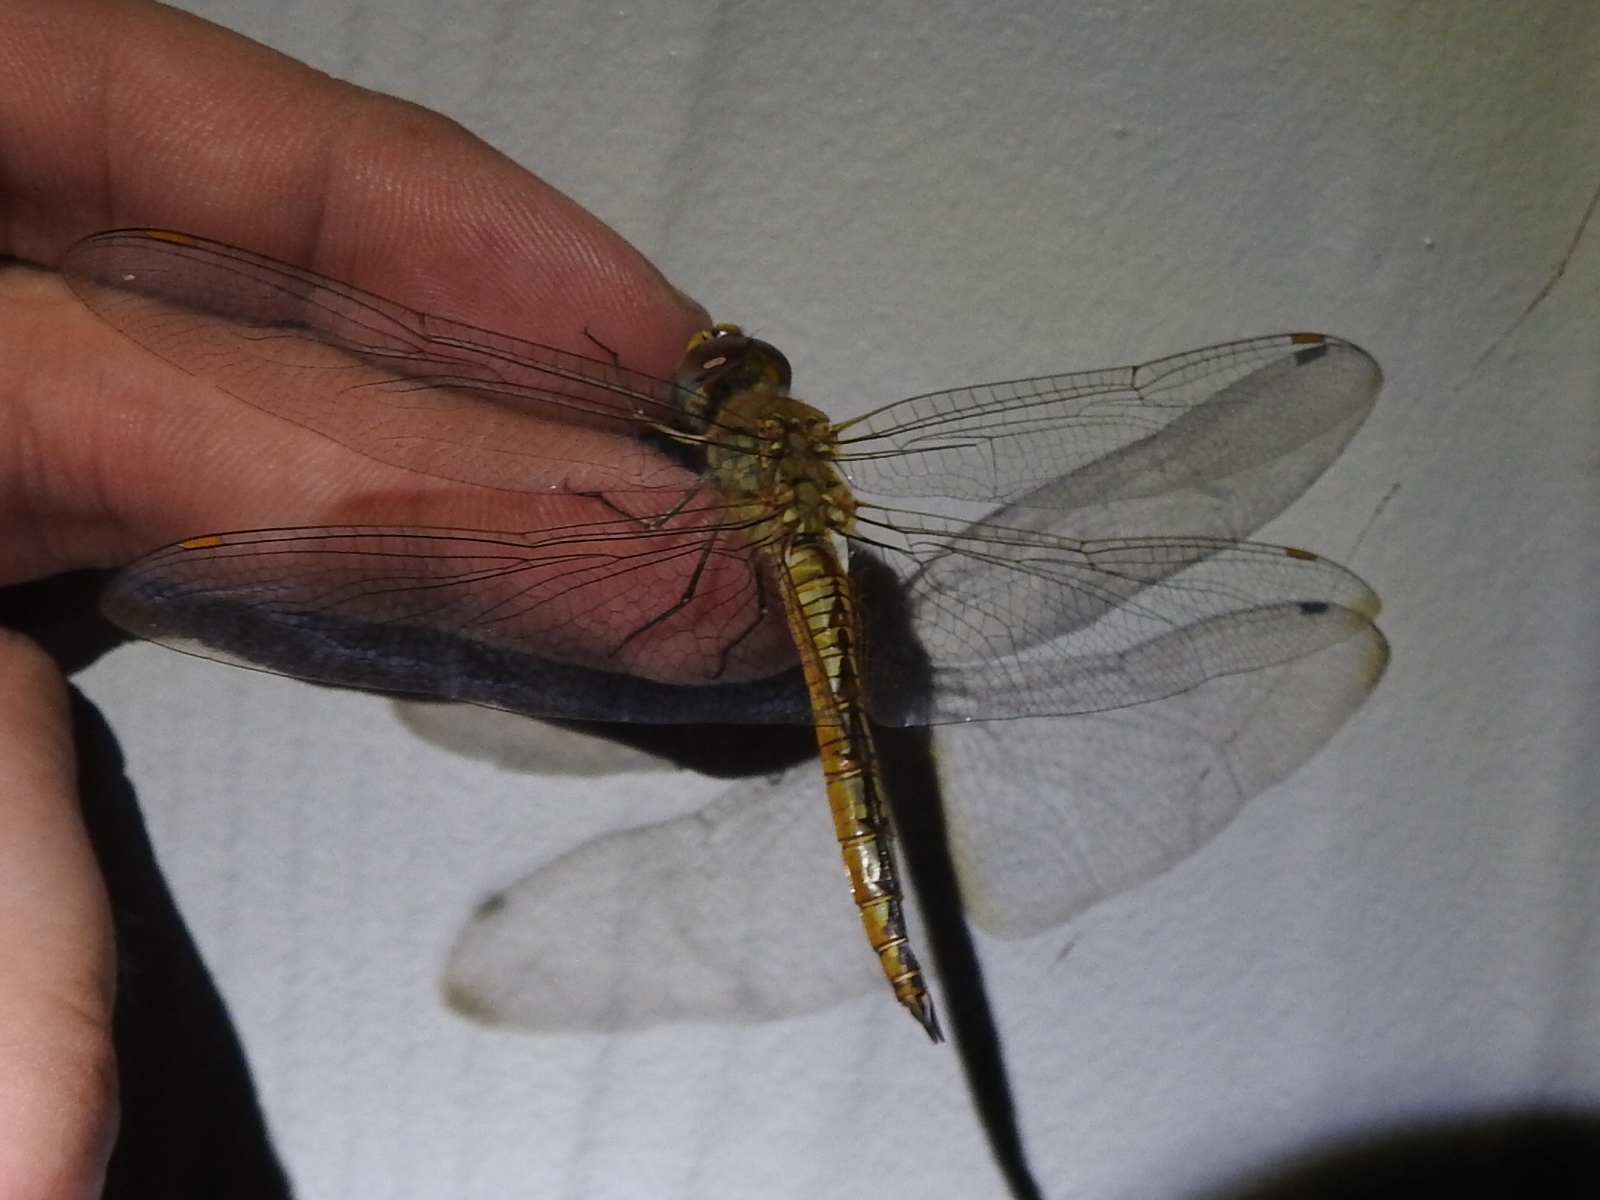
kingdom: Animalia
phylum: Arthropoda
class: Insecta
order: Odonata
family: Libellulidae
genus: Pantala
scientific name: Pantala flavescens
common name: Wandering glider
